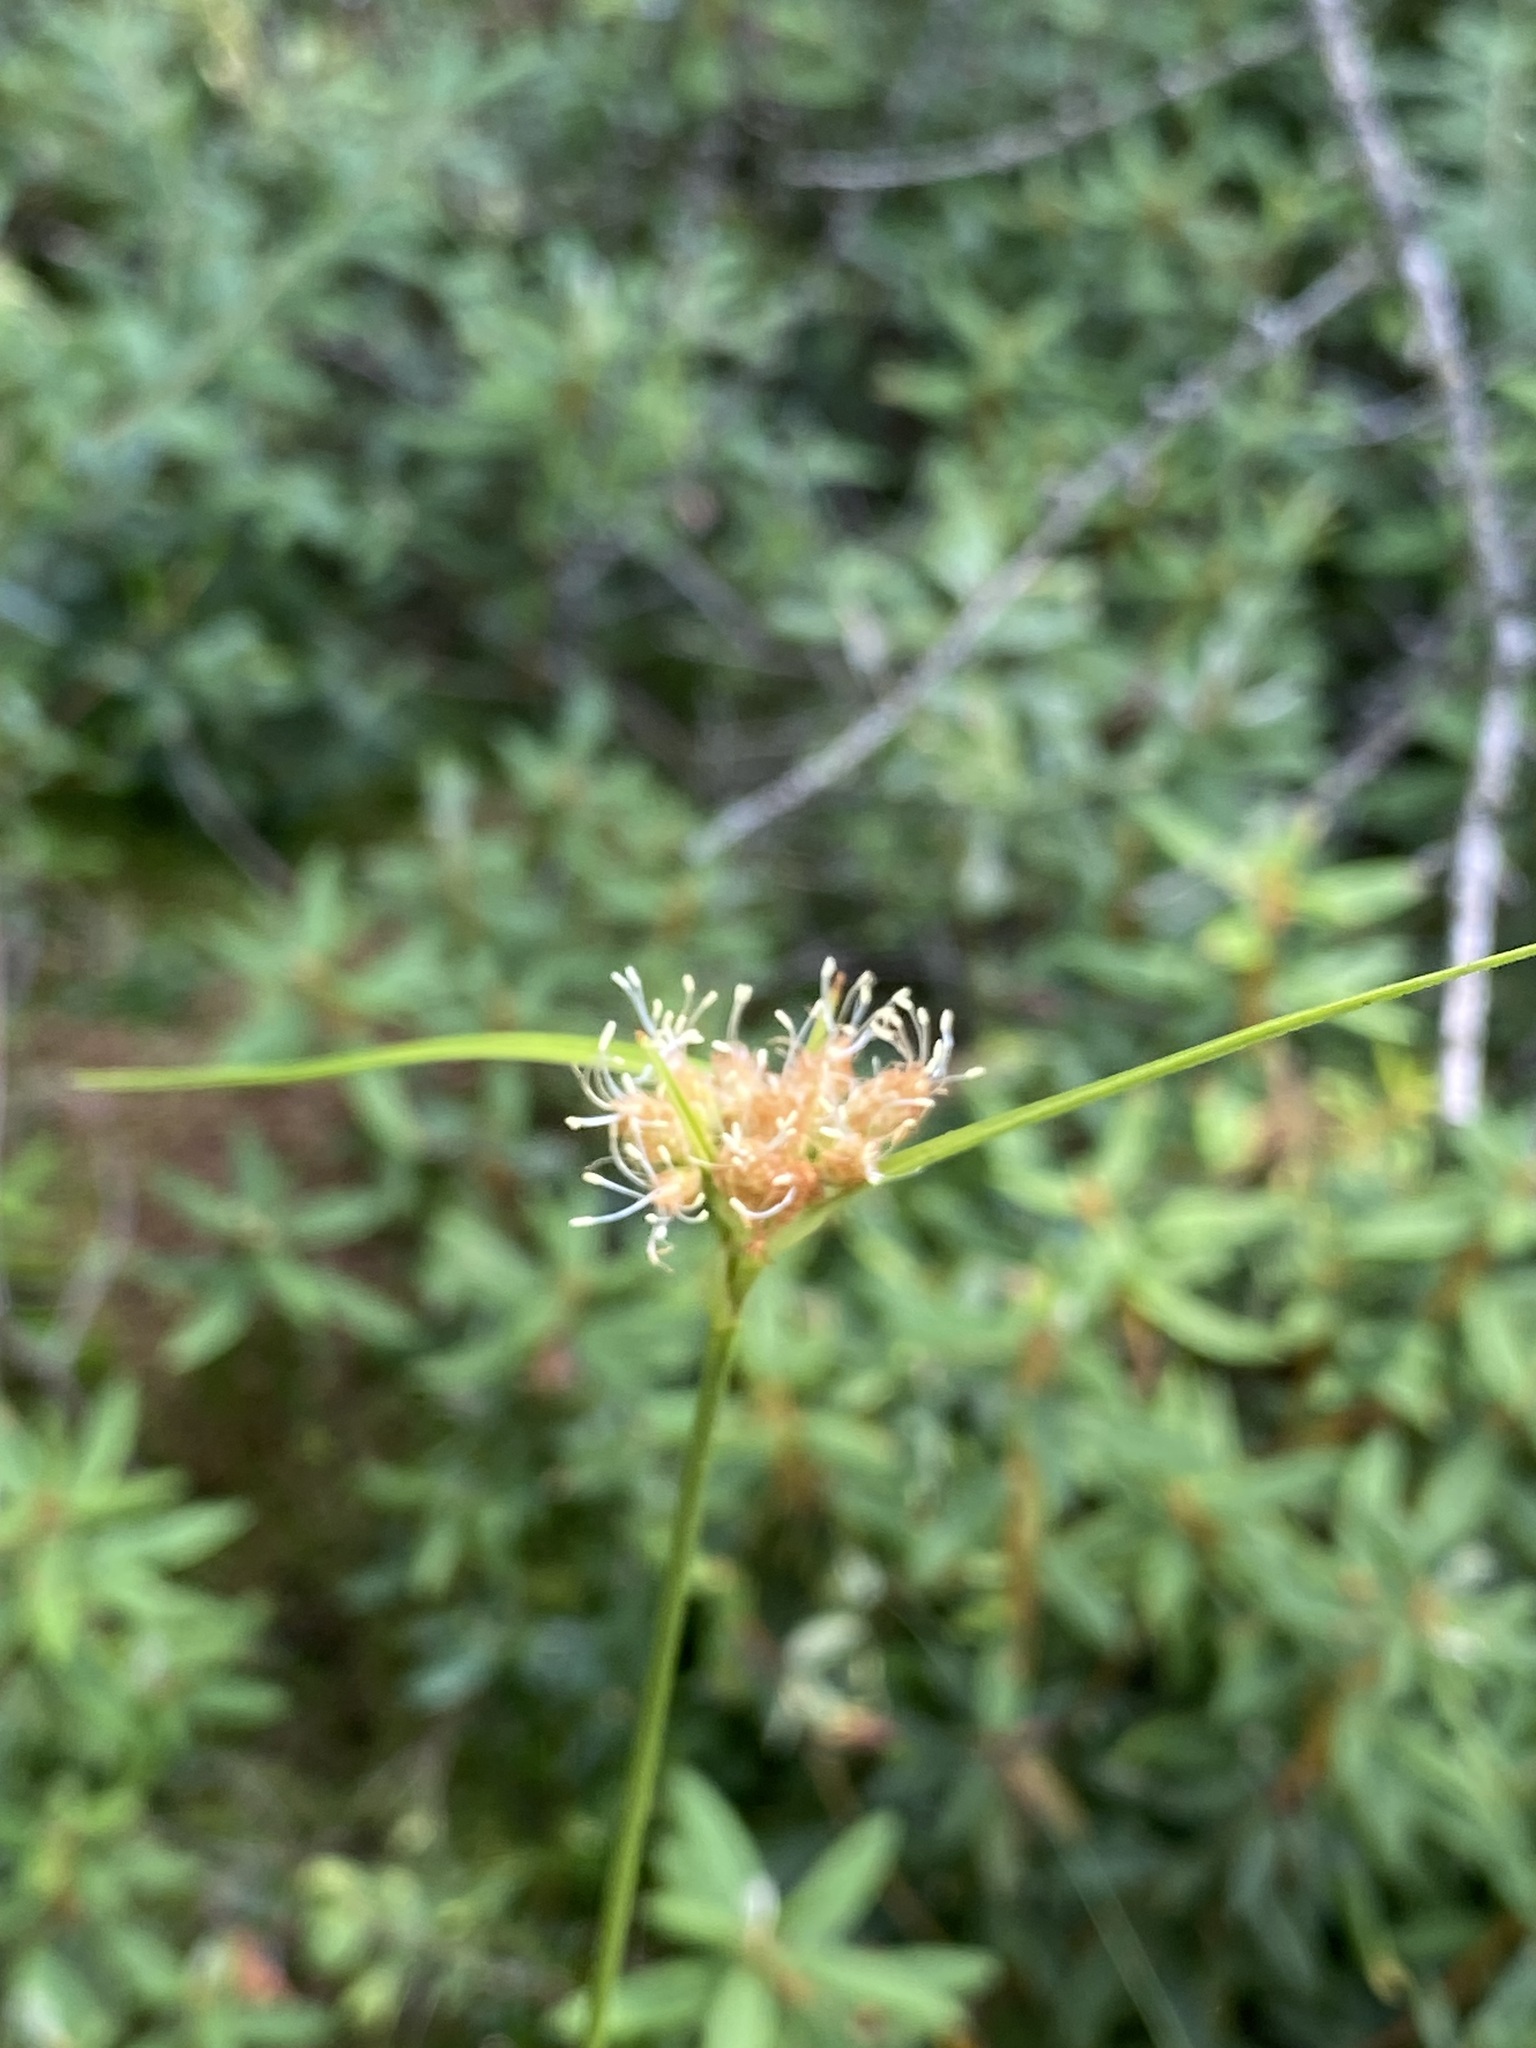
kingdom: Plantae
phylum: Tracheophyta
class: Liliopsida
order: Poales
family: Cyperaceae
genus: Eriophorum
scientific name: Eriophorum virginicum
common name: Tawny cottongrass
